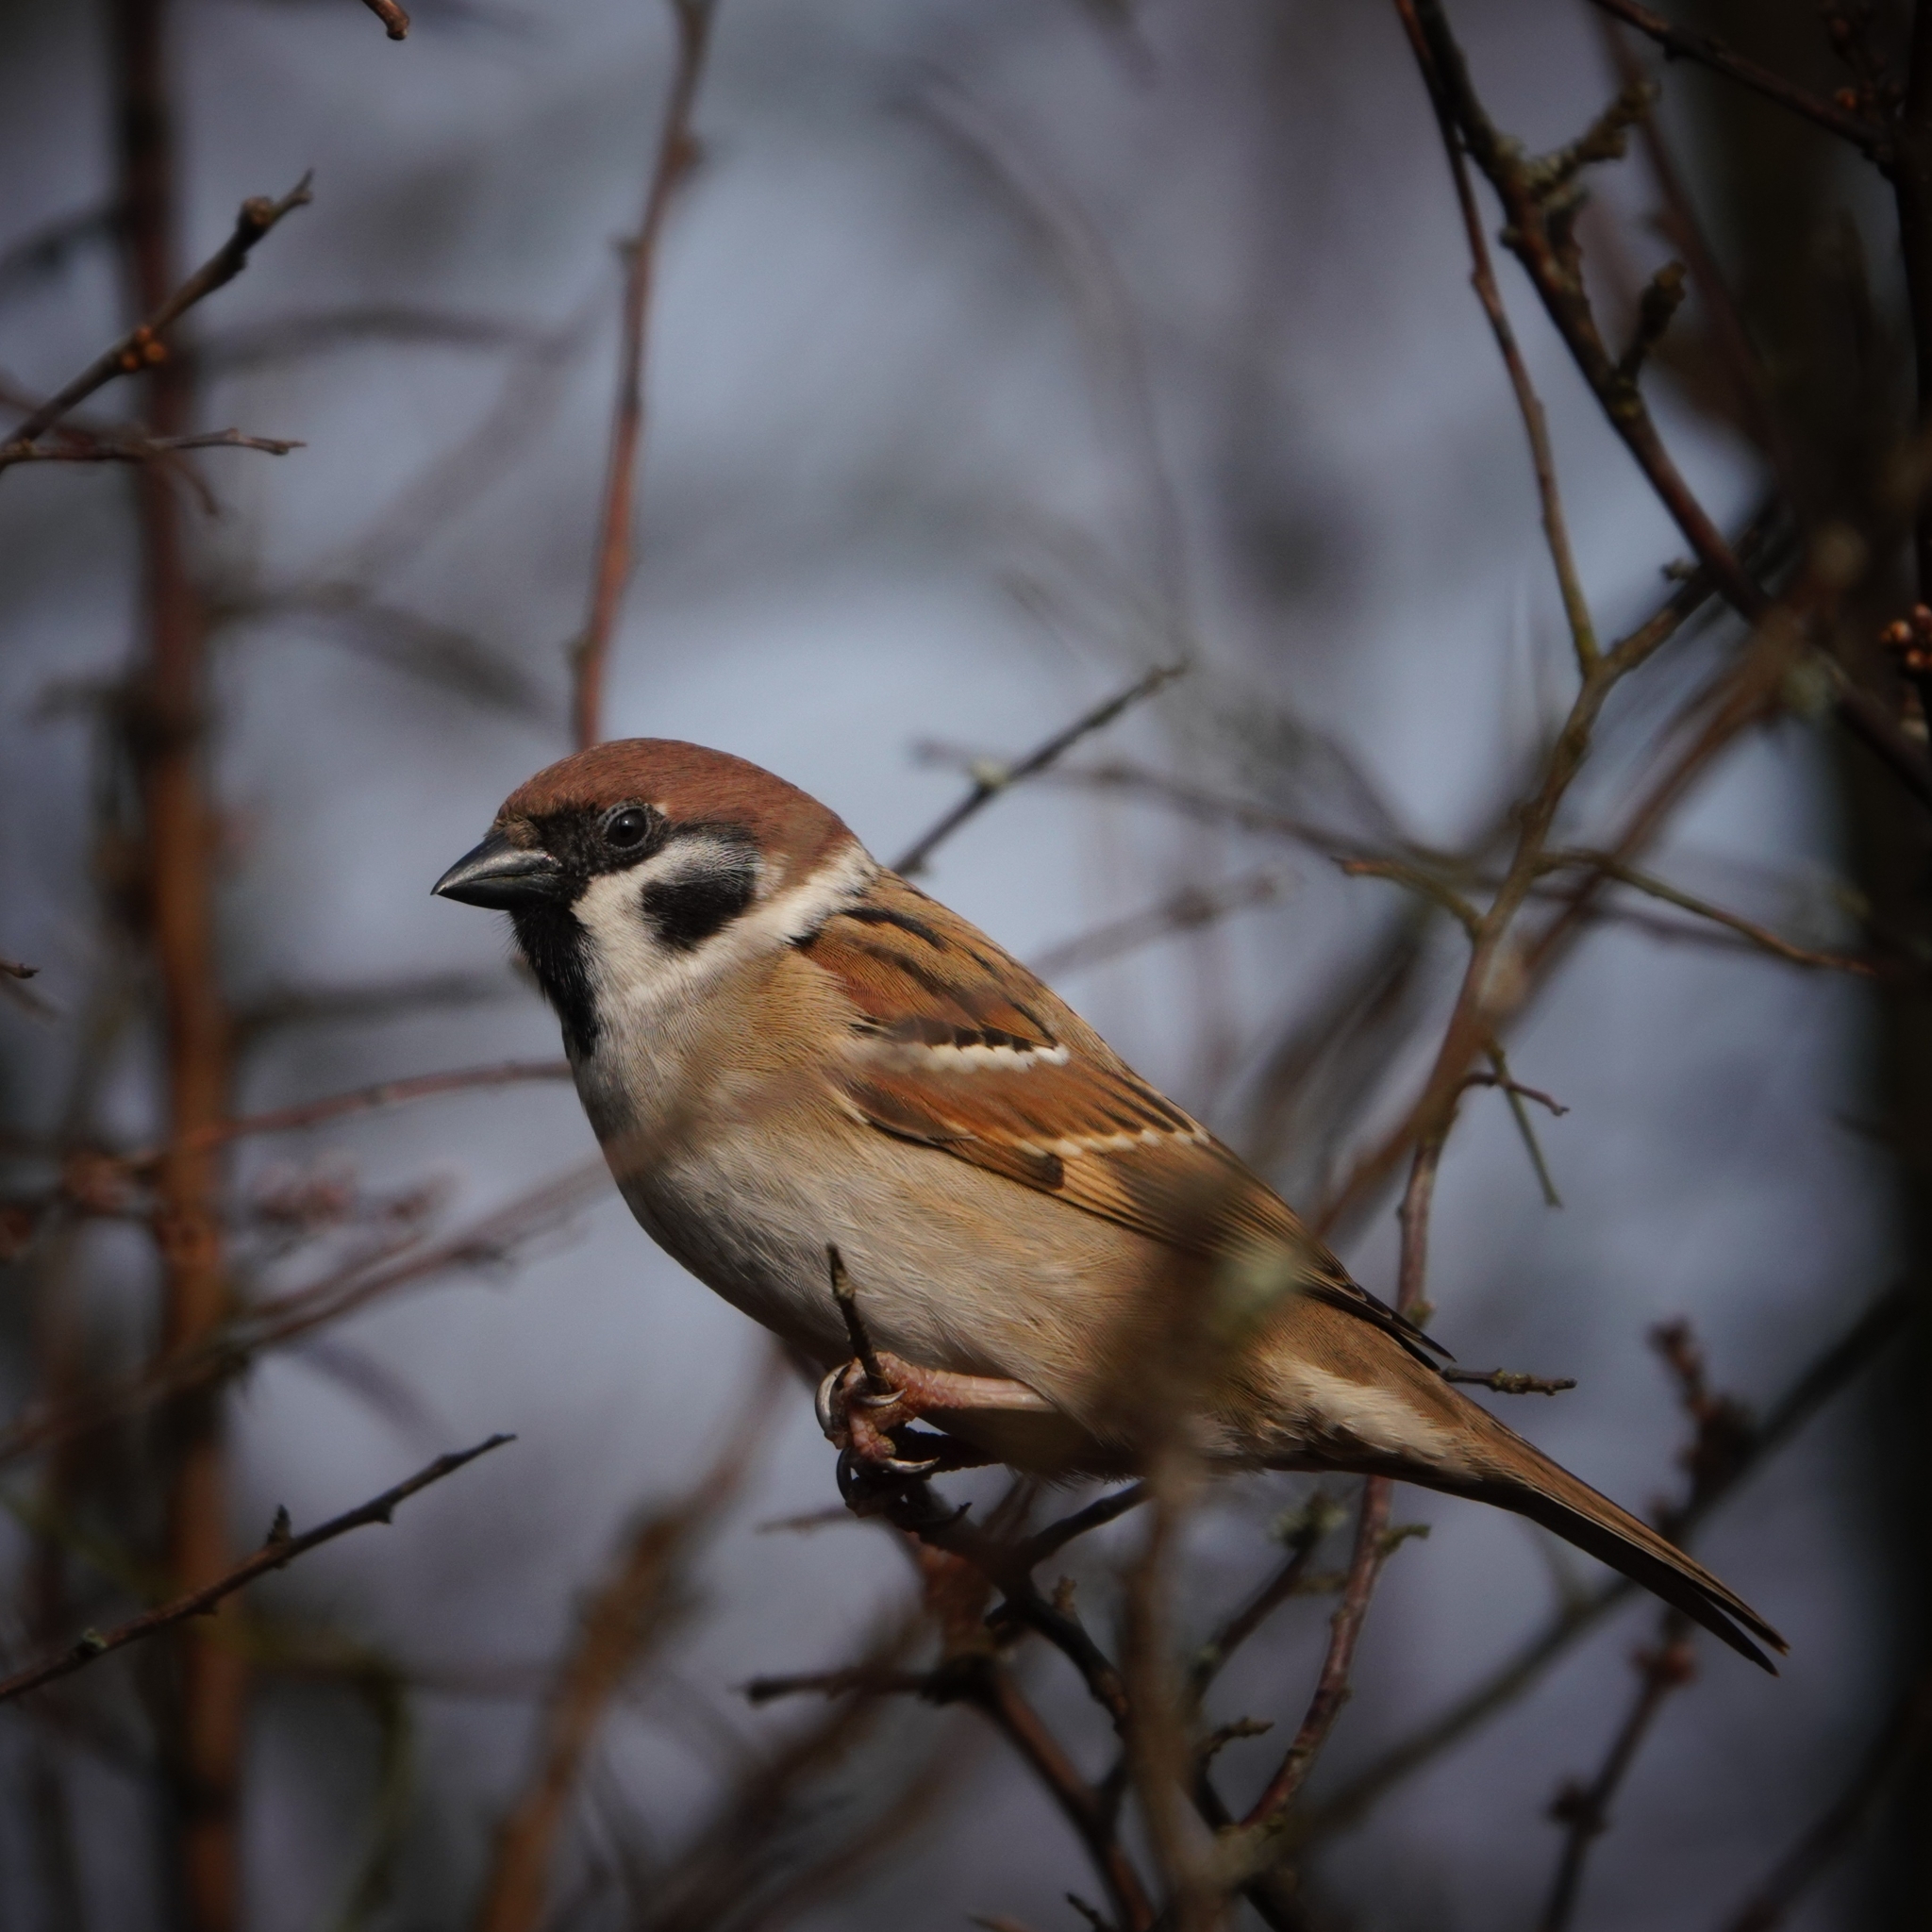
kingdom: Animalia
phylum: Chordata
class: Aves
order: Passeriformes
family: Passeridae
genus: Passer
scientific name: Passer montanus
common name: Eurasian tree sparrow
